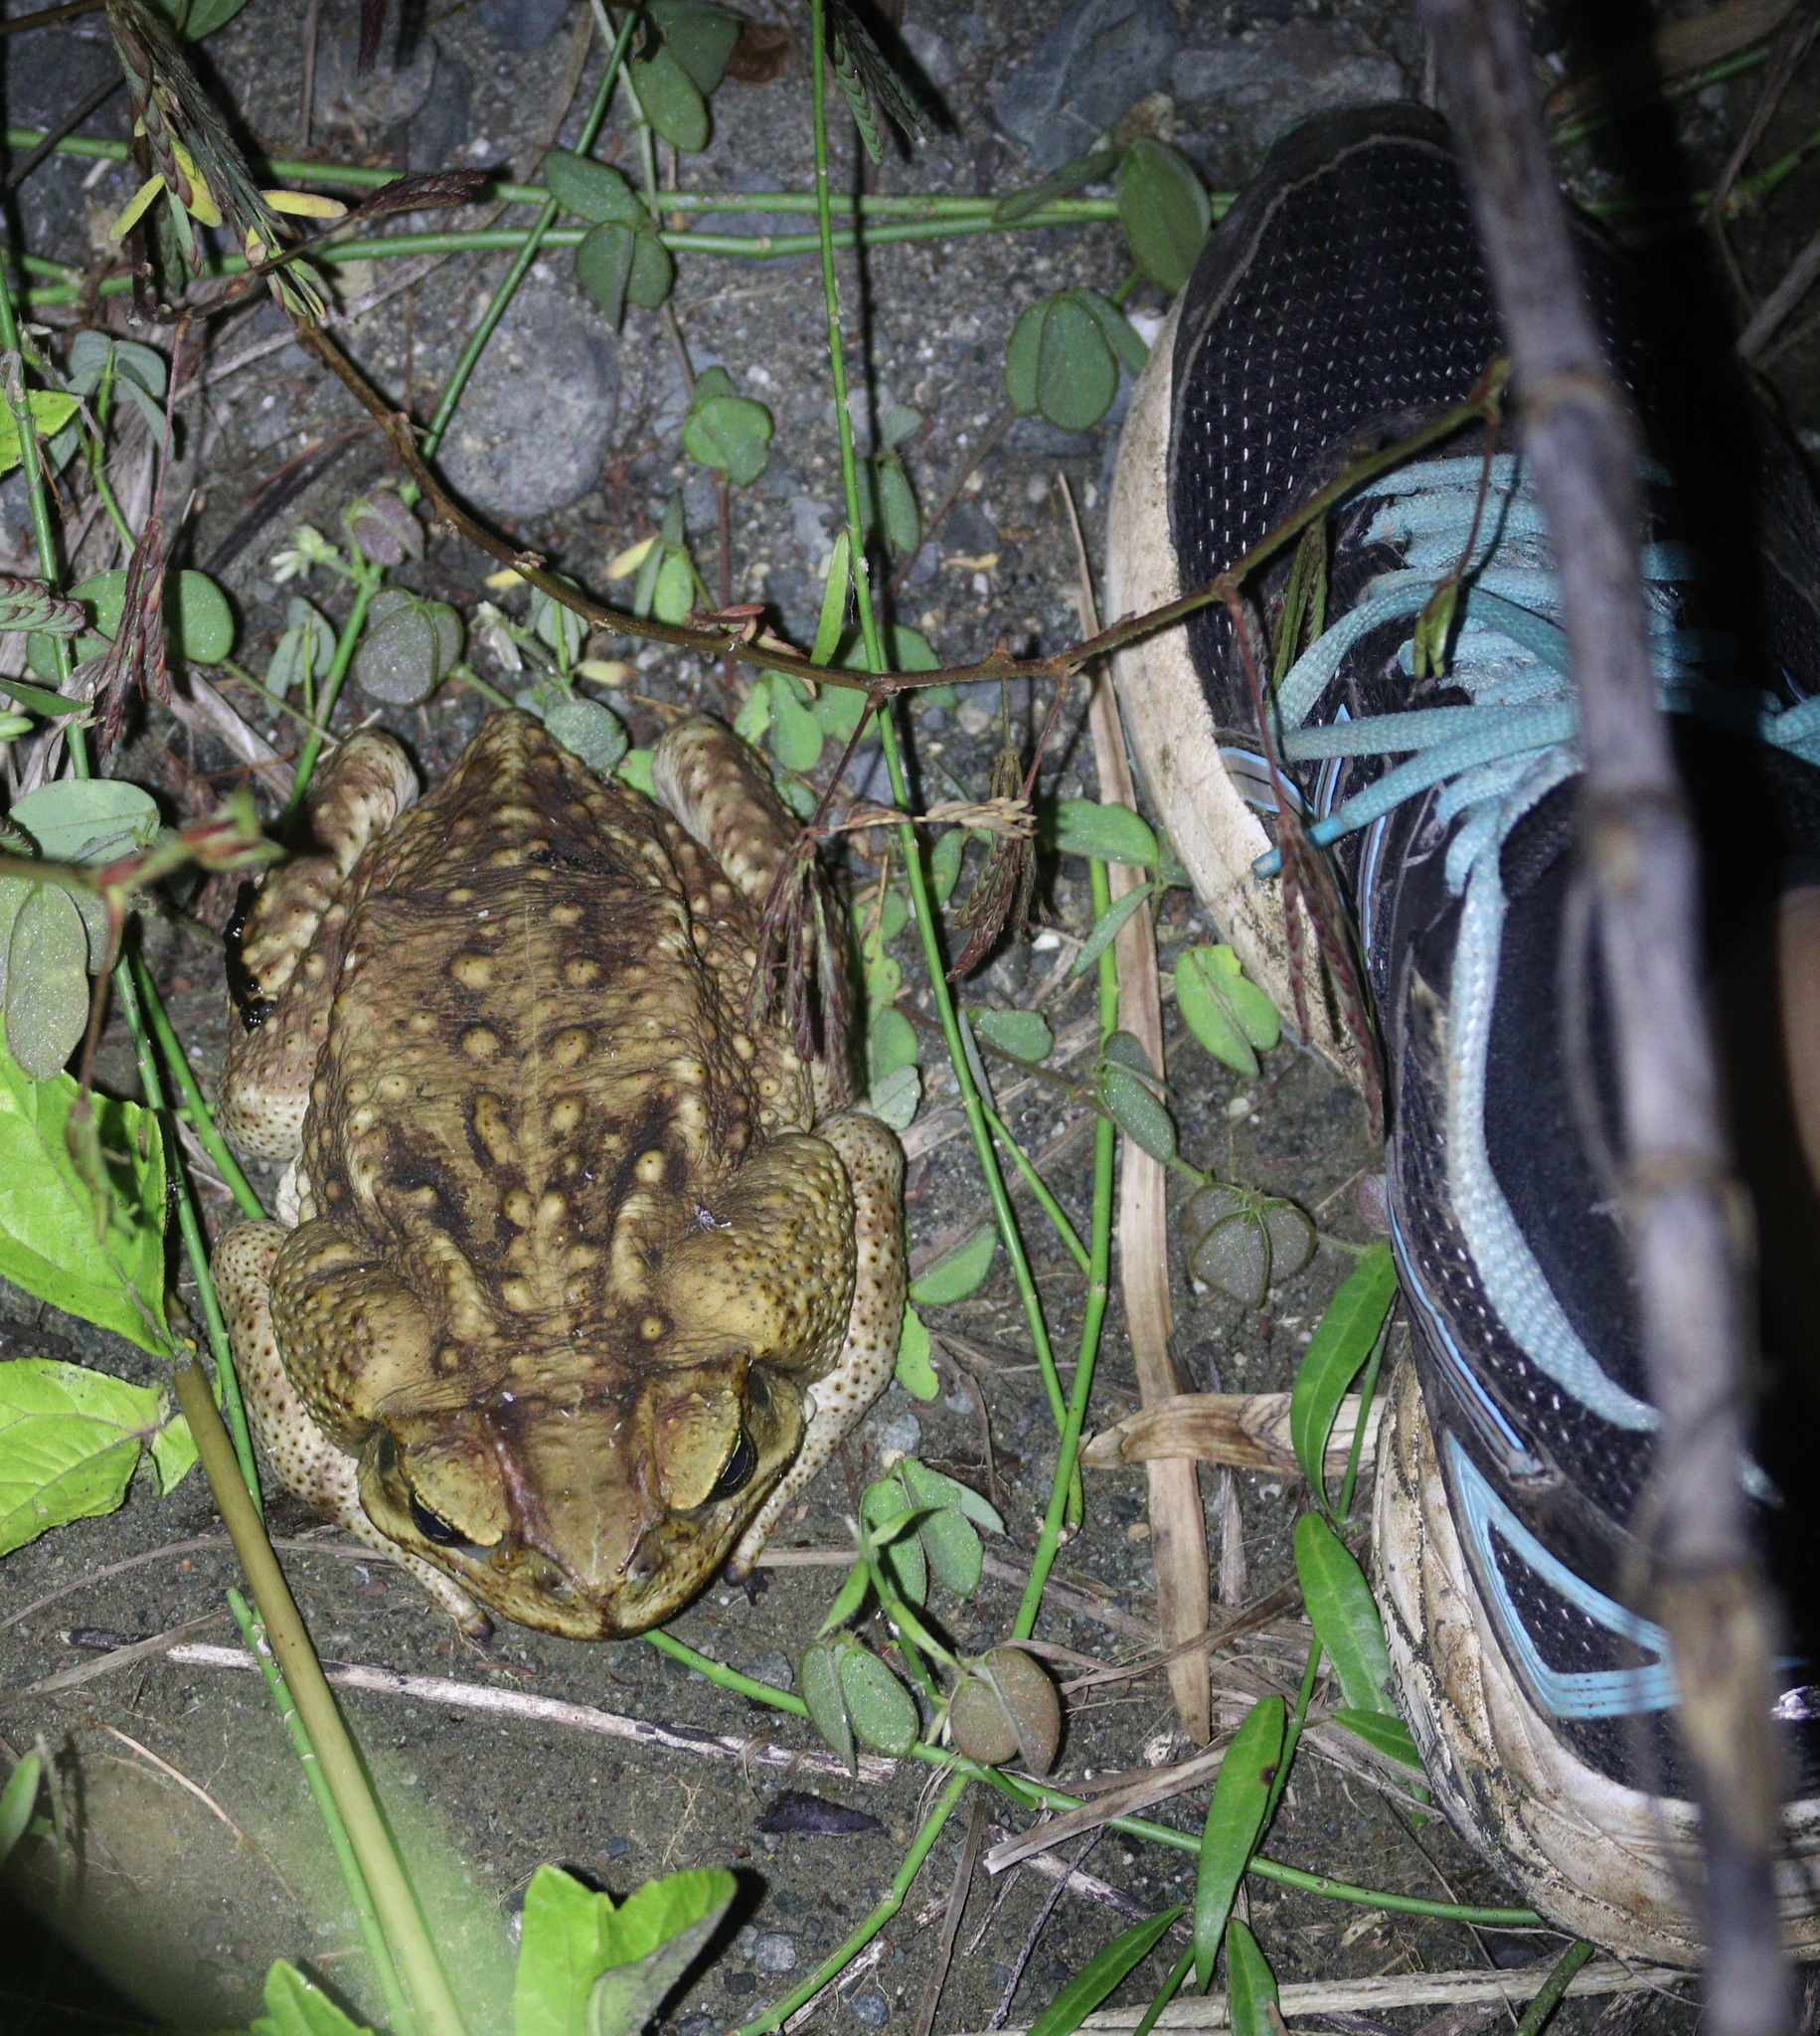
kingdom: Animalia
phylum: Chordata
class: Amphibia
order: Anura
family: Bufonidae
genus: Rhinella
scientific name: Rhinella horribilis
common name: Mesoamerican cane toad
